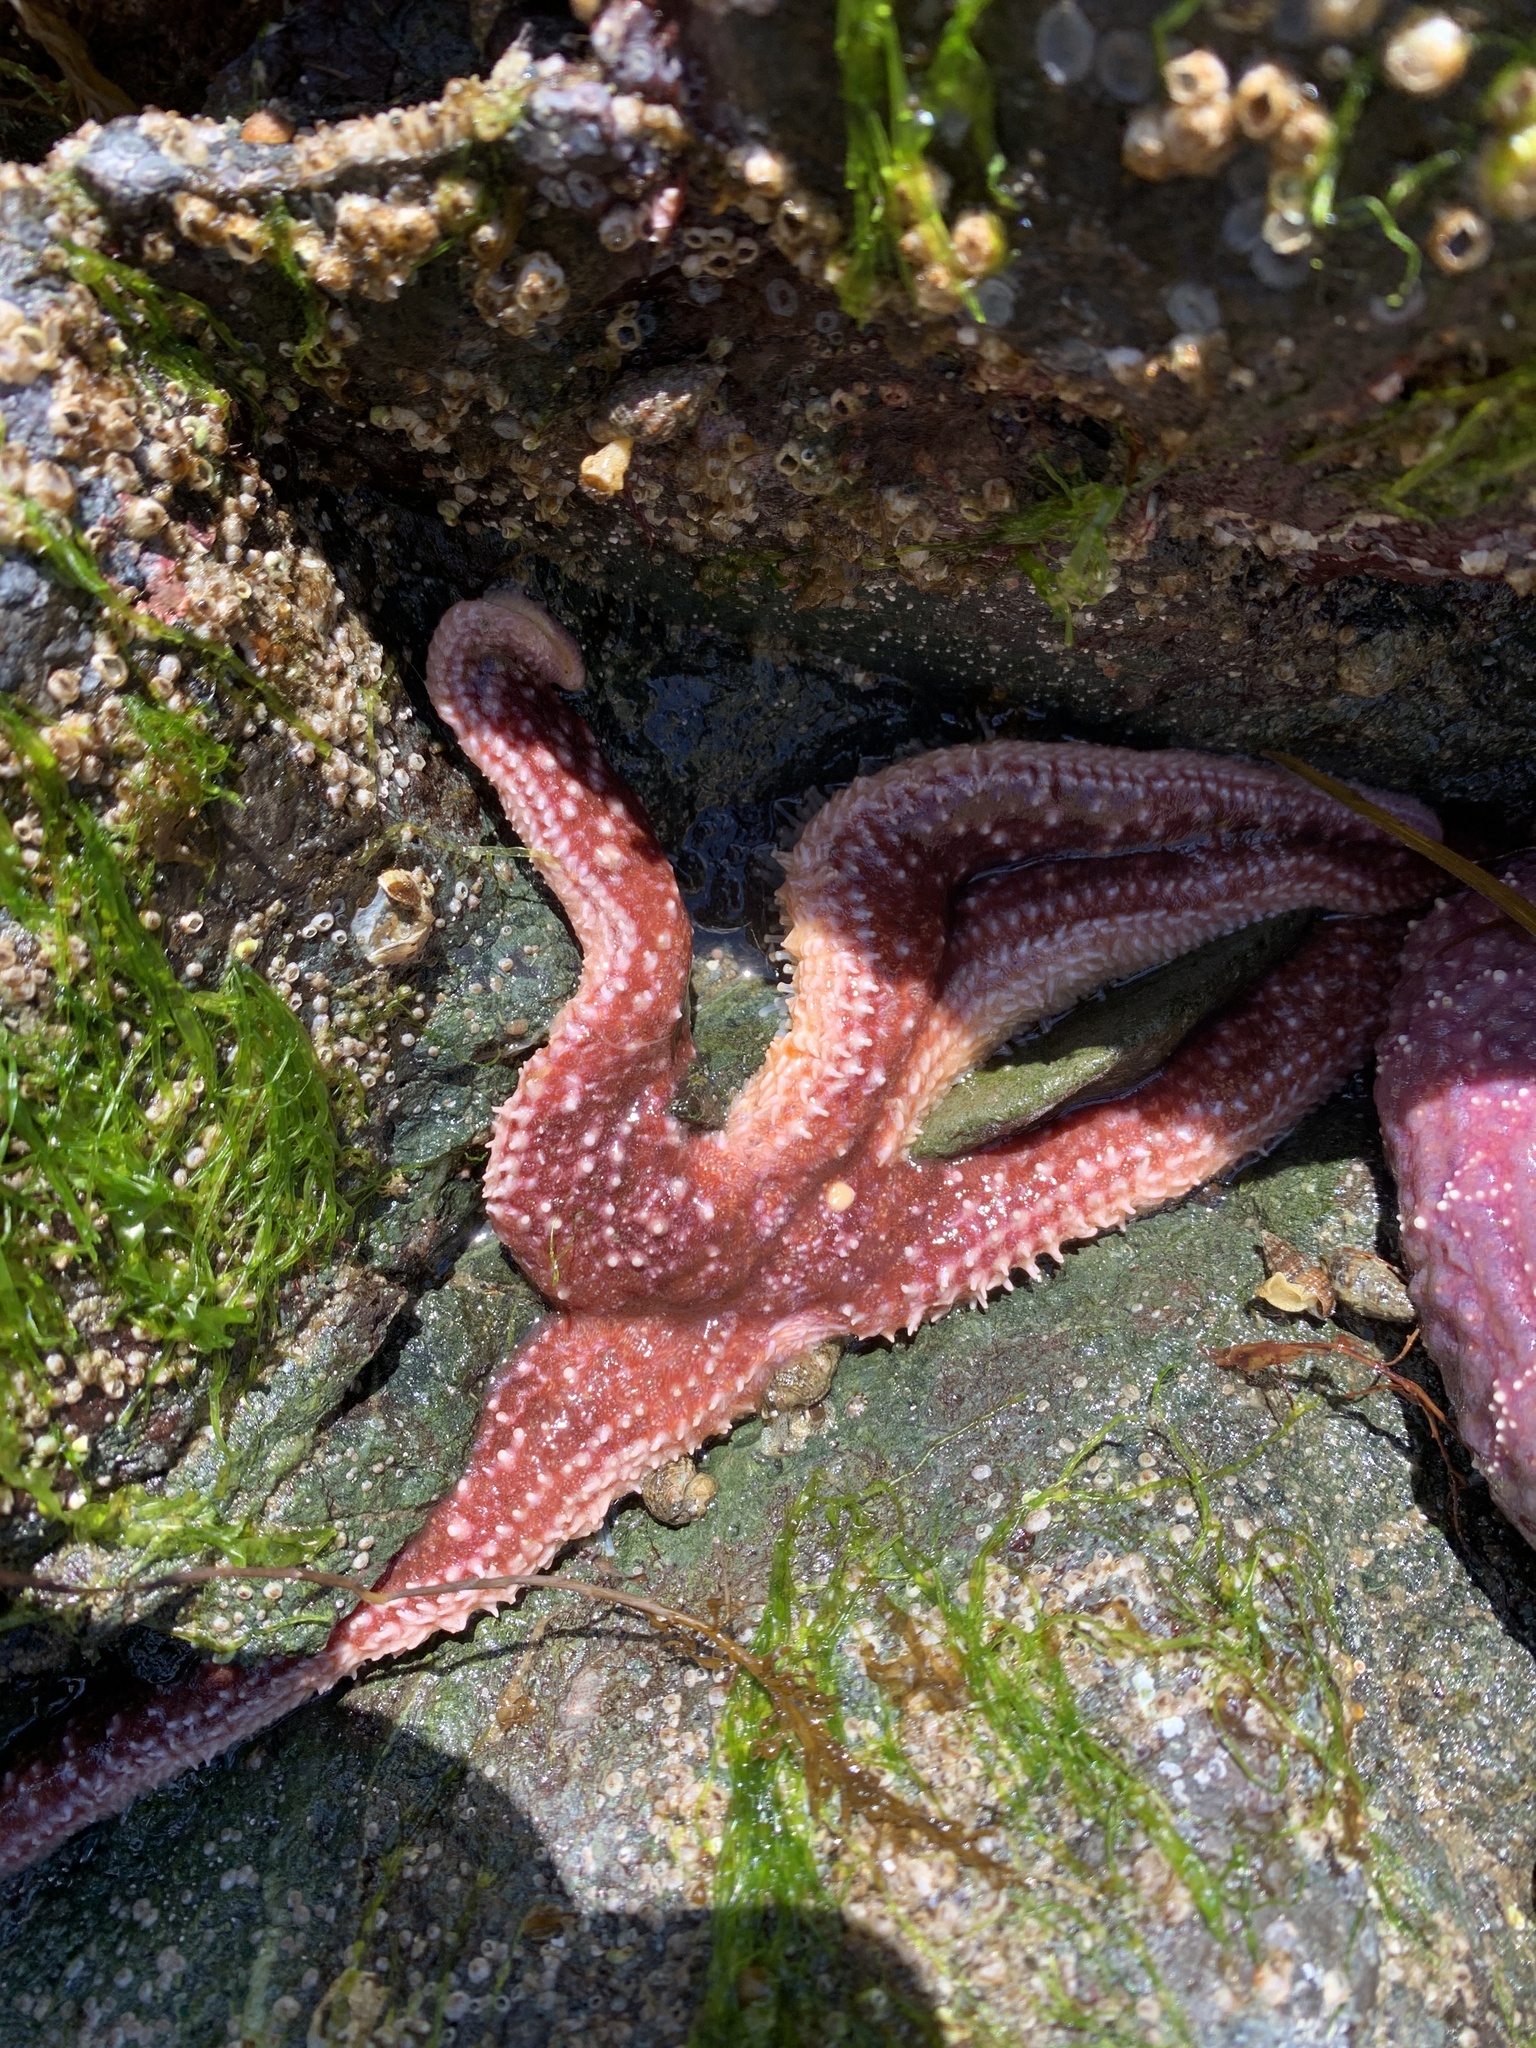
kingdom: Animalia
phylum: Echinodermata
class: Asteroidea
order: Forcipulatida
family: Asteriidae
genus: Evasterias
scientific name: Evasterias troschelii
